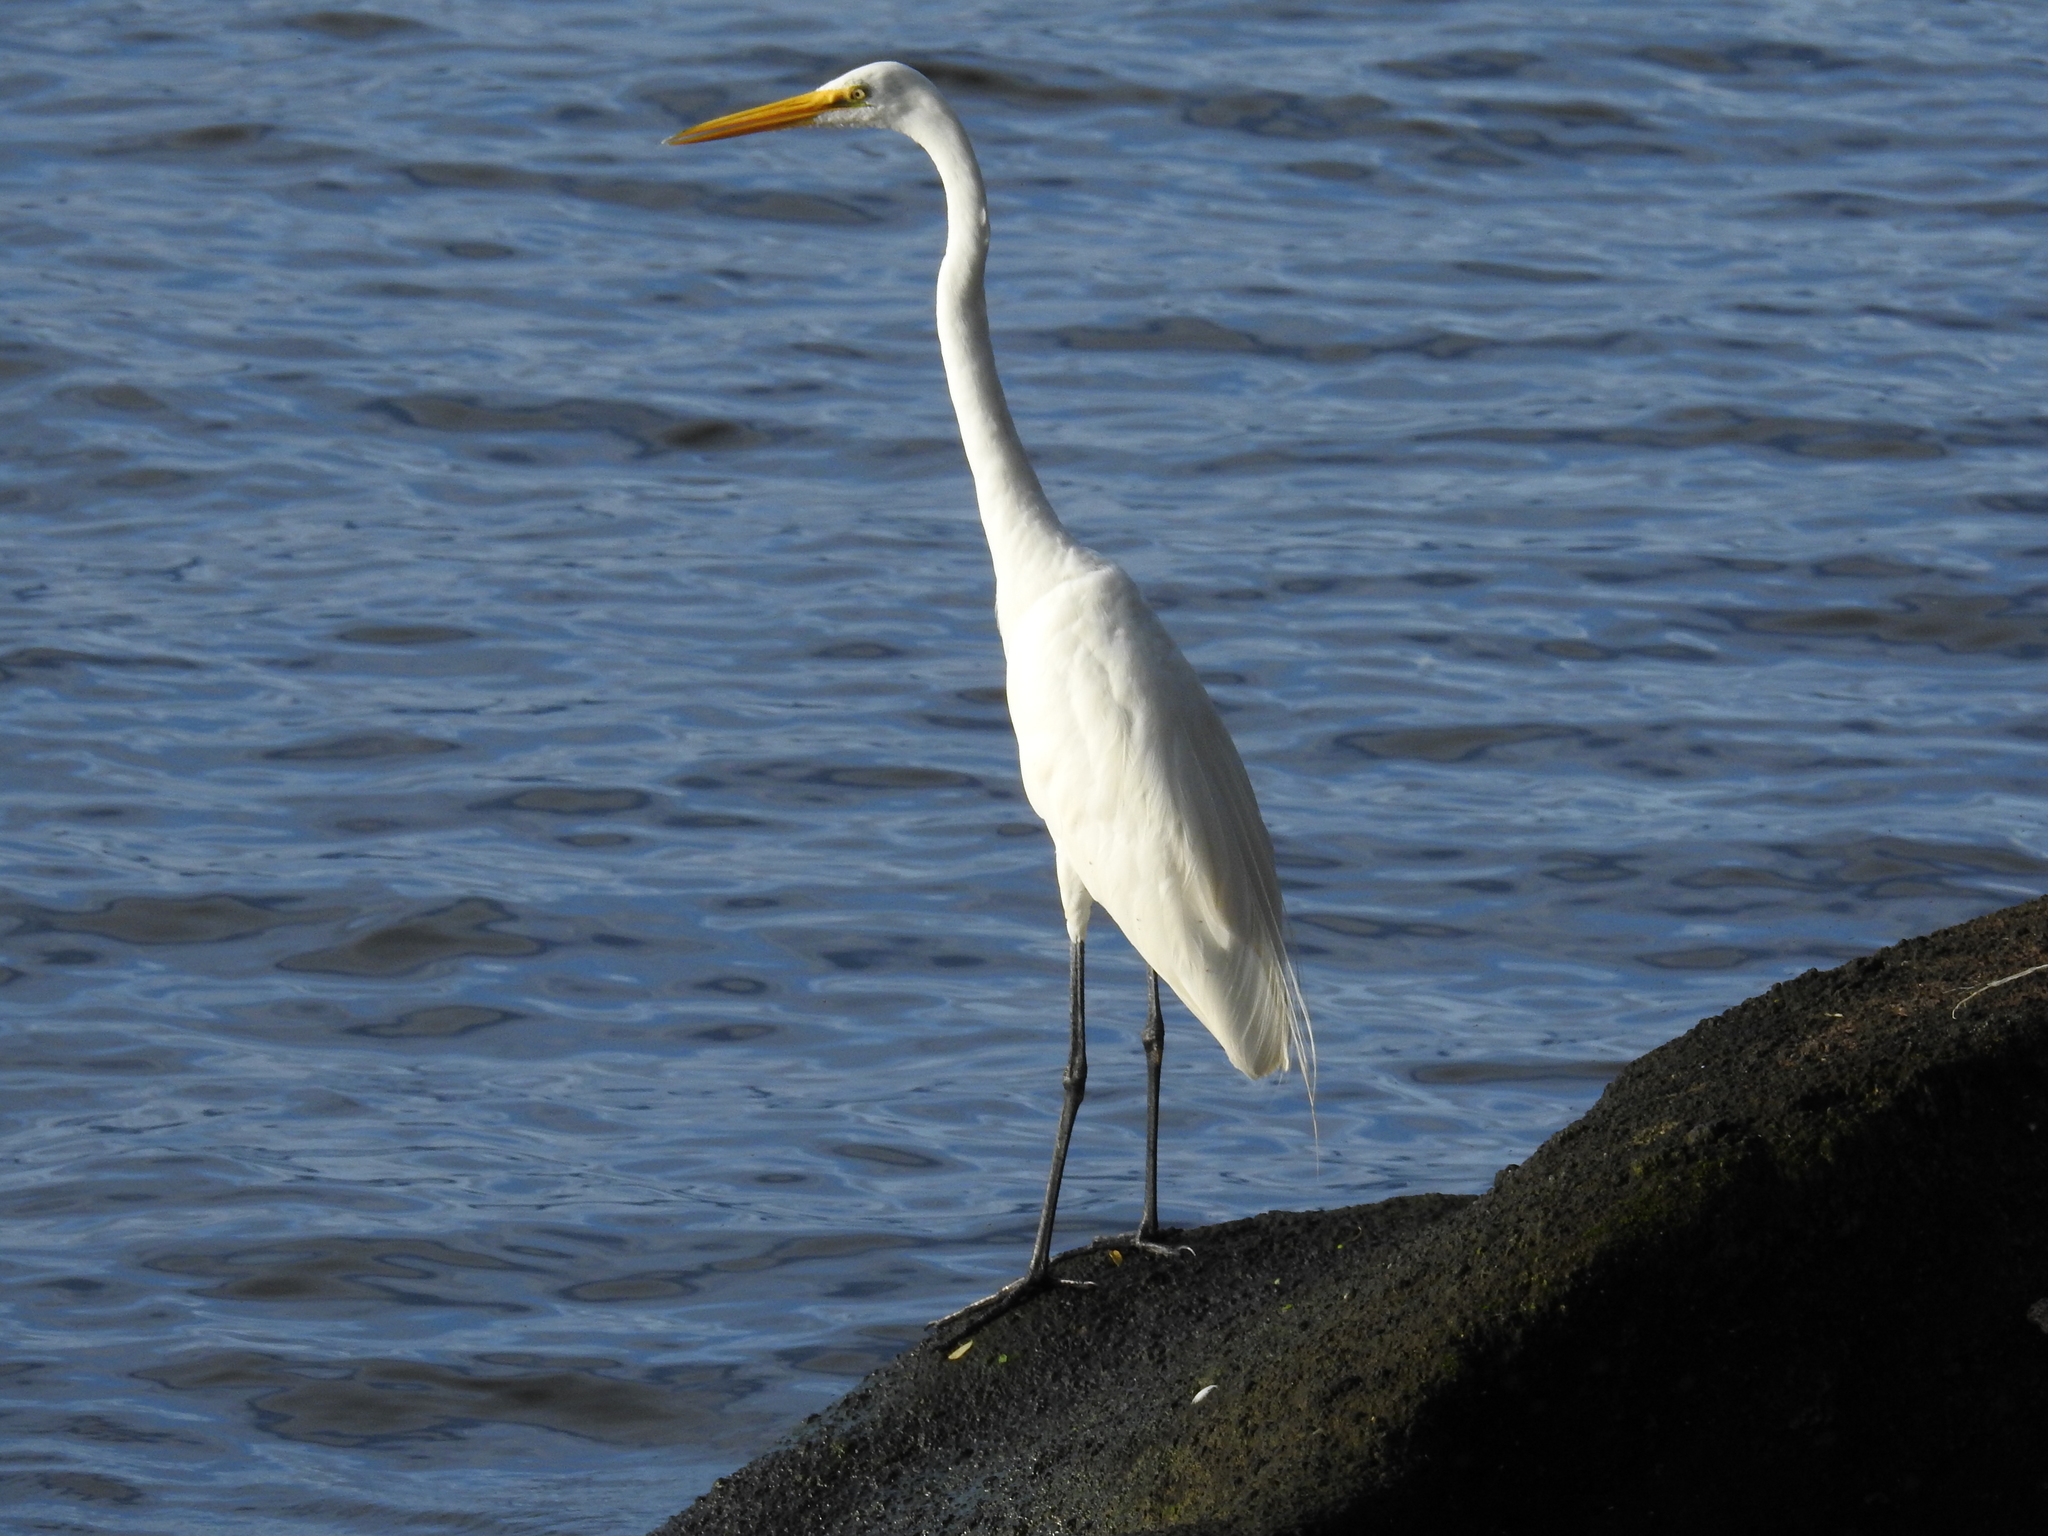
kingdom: Animalia
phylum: Chordata
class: Aves
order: Pelecaniformes
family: Ardeidae
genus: Ardea
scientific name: Ardea alba
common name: Great egret
